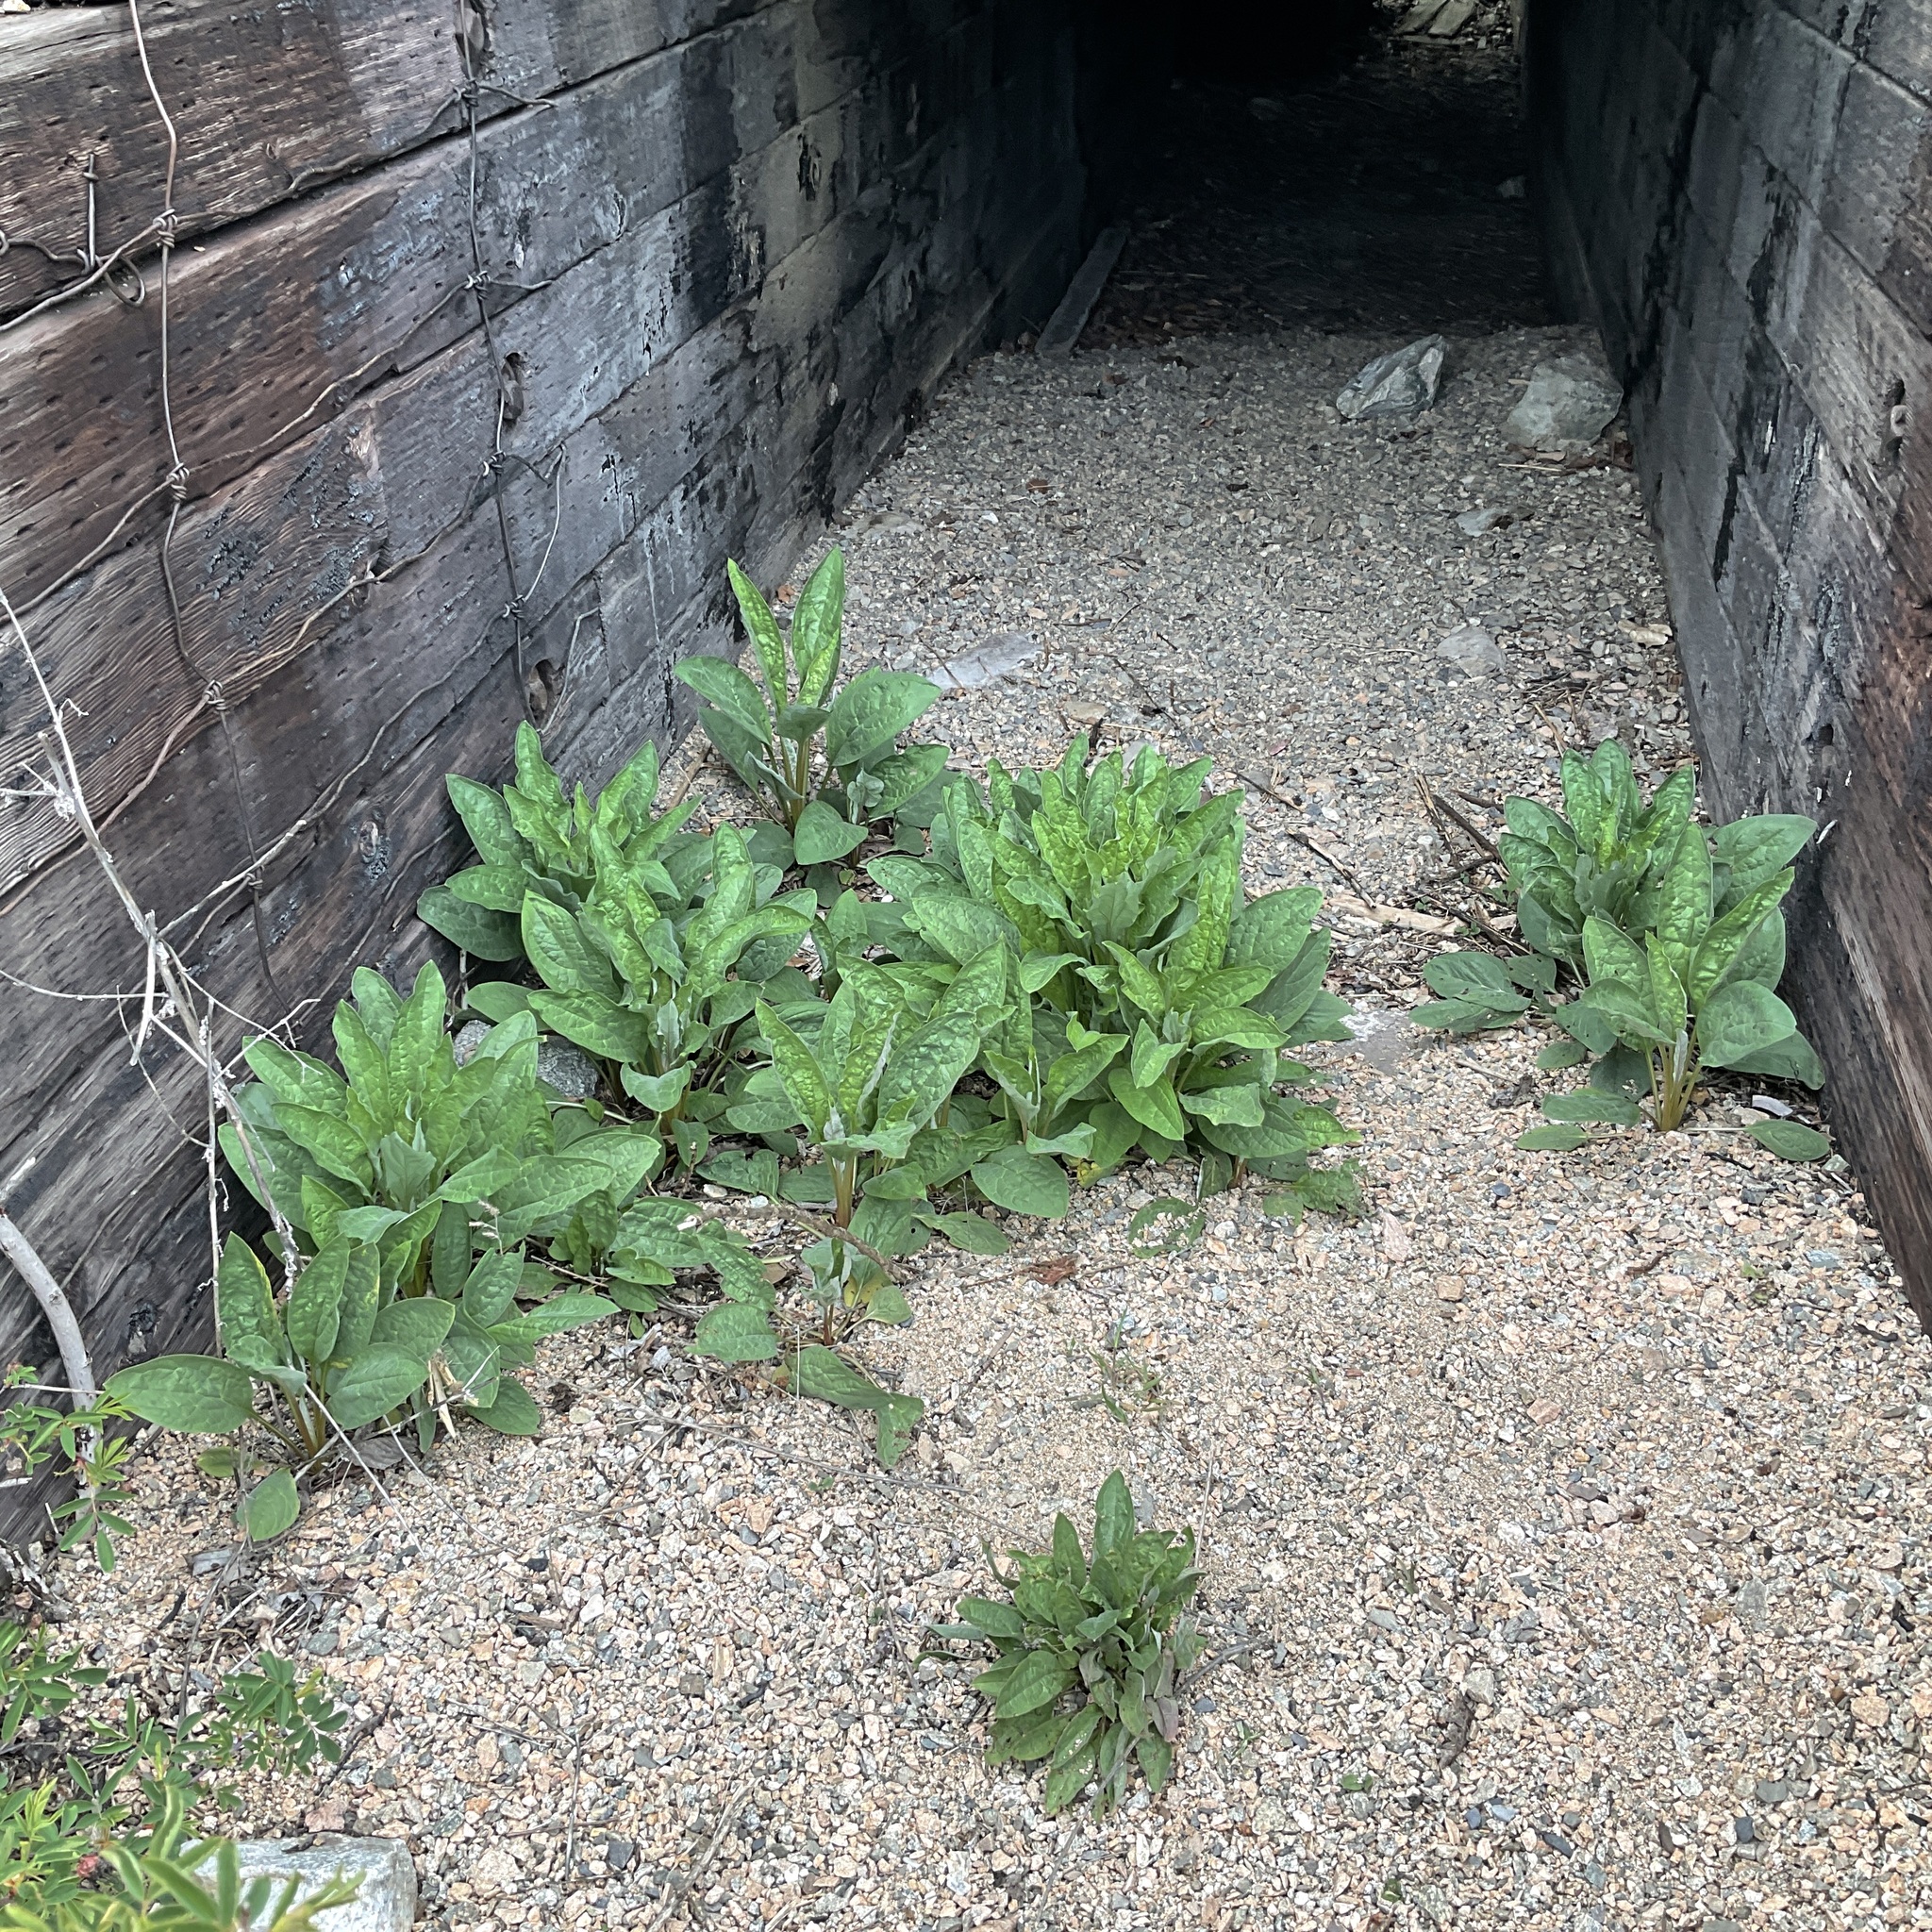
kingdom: Plantae
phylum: Tracheophyta
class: Magnoliopsida
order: Boraginales
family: Boraginaceae
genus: Cynoglossum
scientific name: Cynoglossum officinale
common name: Hound's-tongue
